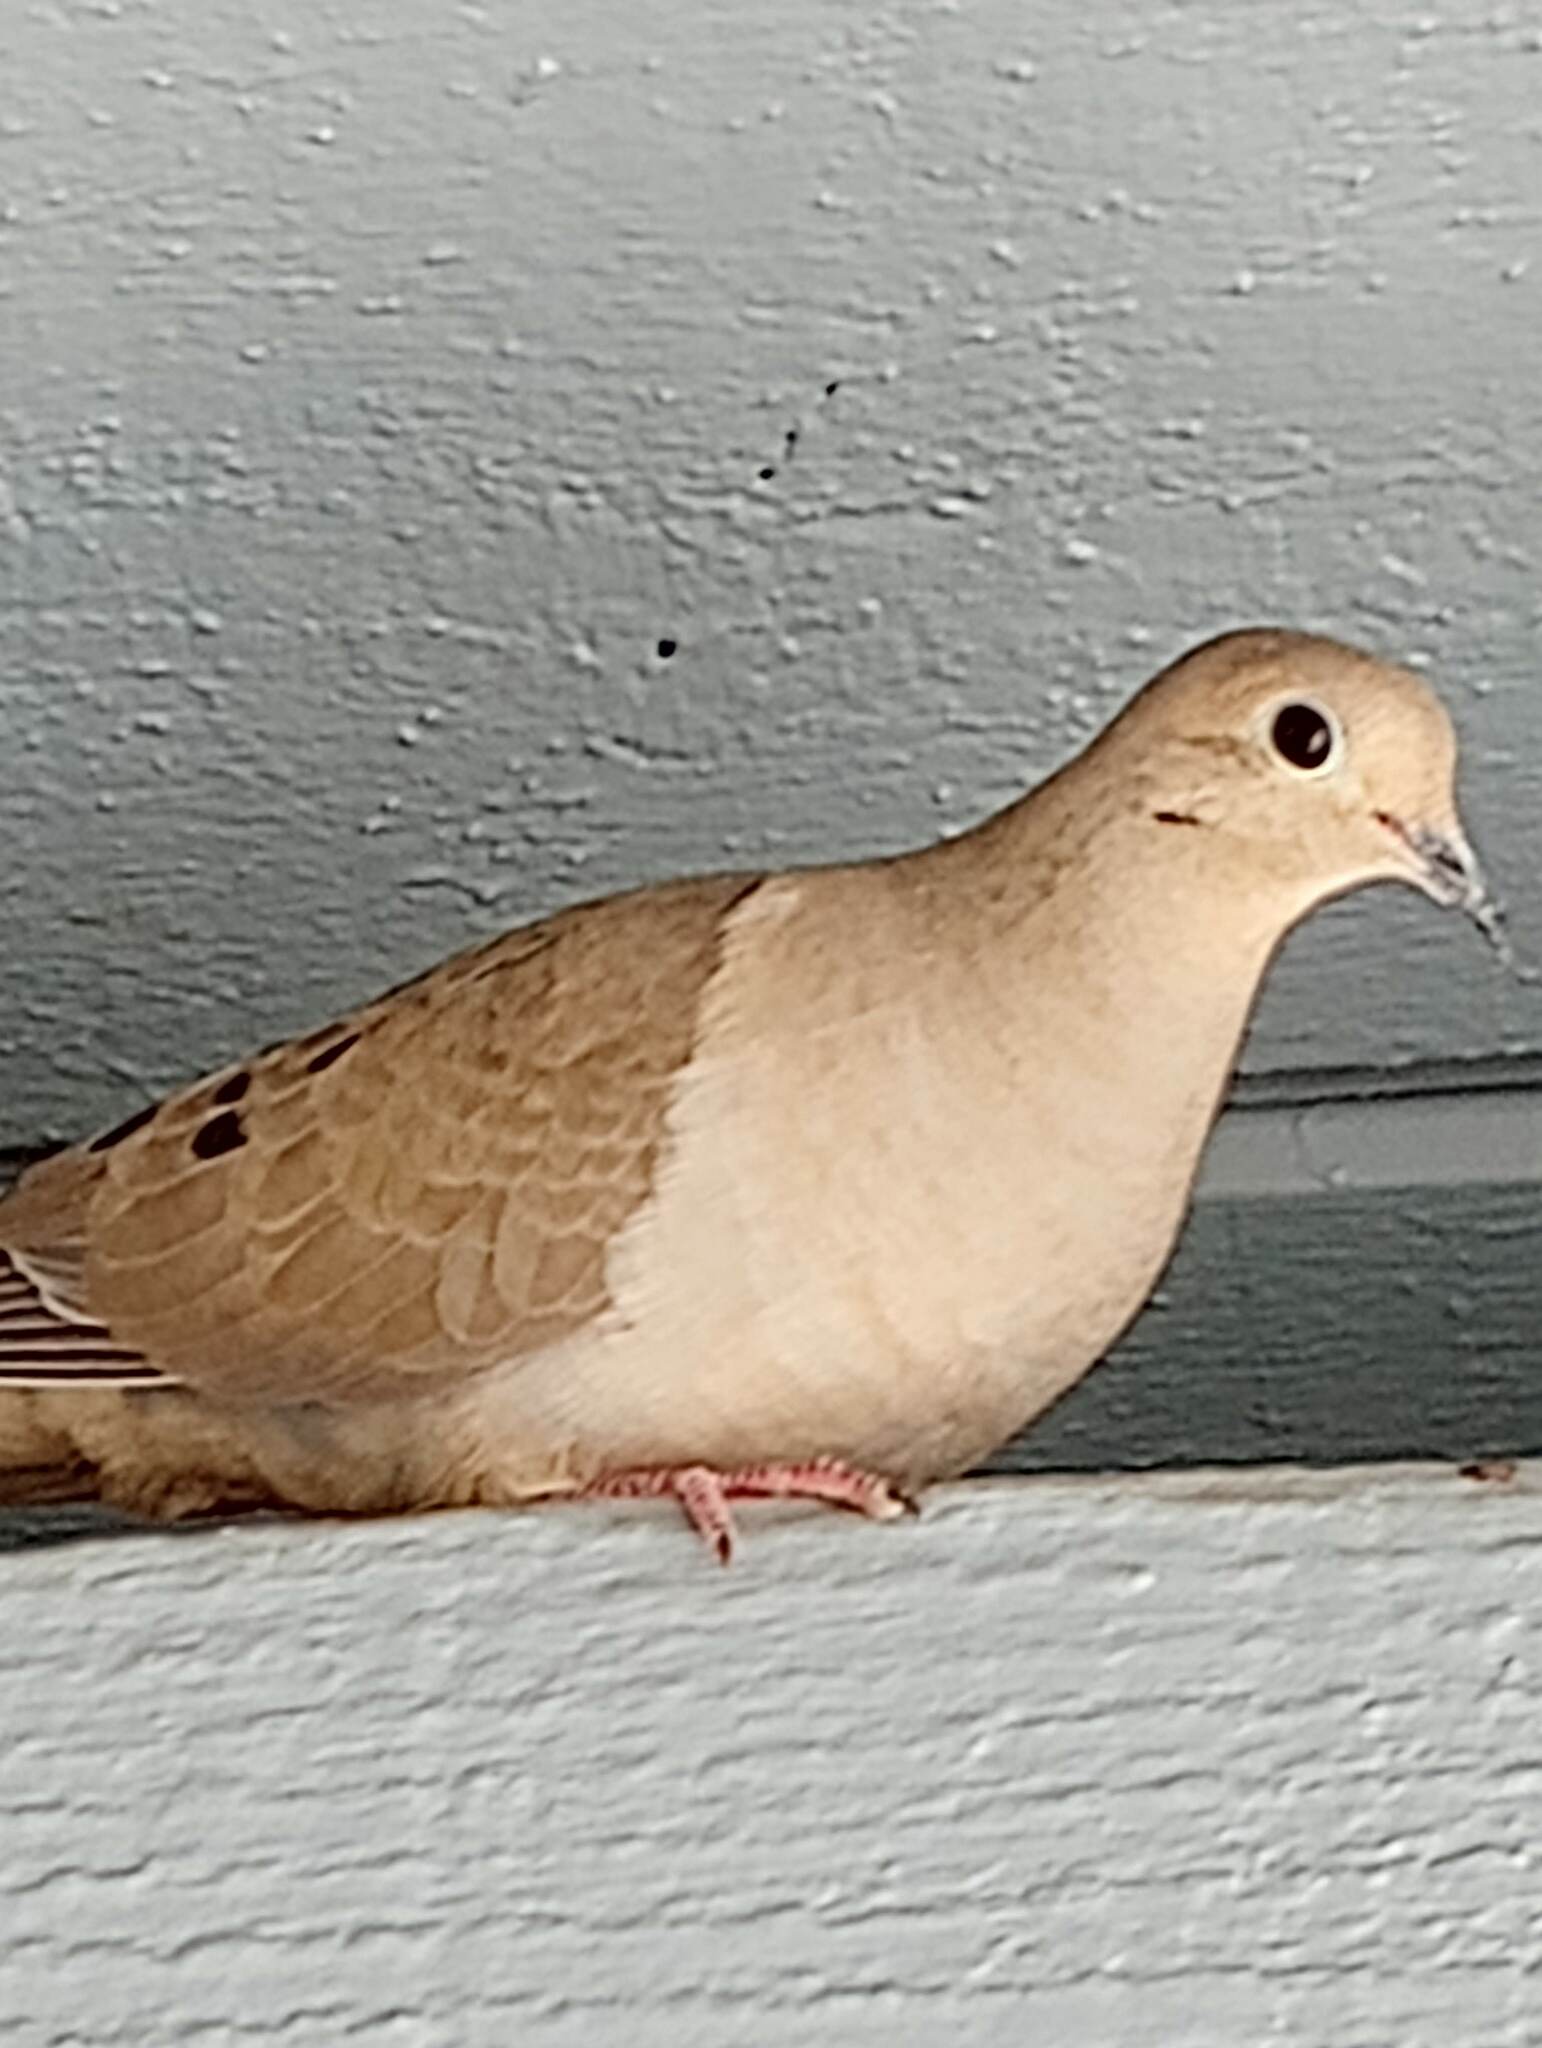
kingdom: Animalia
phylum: Chordata
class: Aves
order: Columbiformes
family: Columbidae
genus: Zenaida
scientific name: Zenaida macroura
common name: Mourning dove
